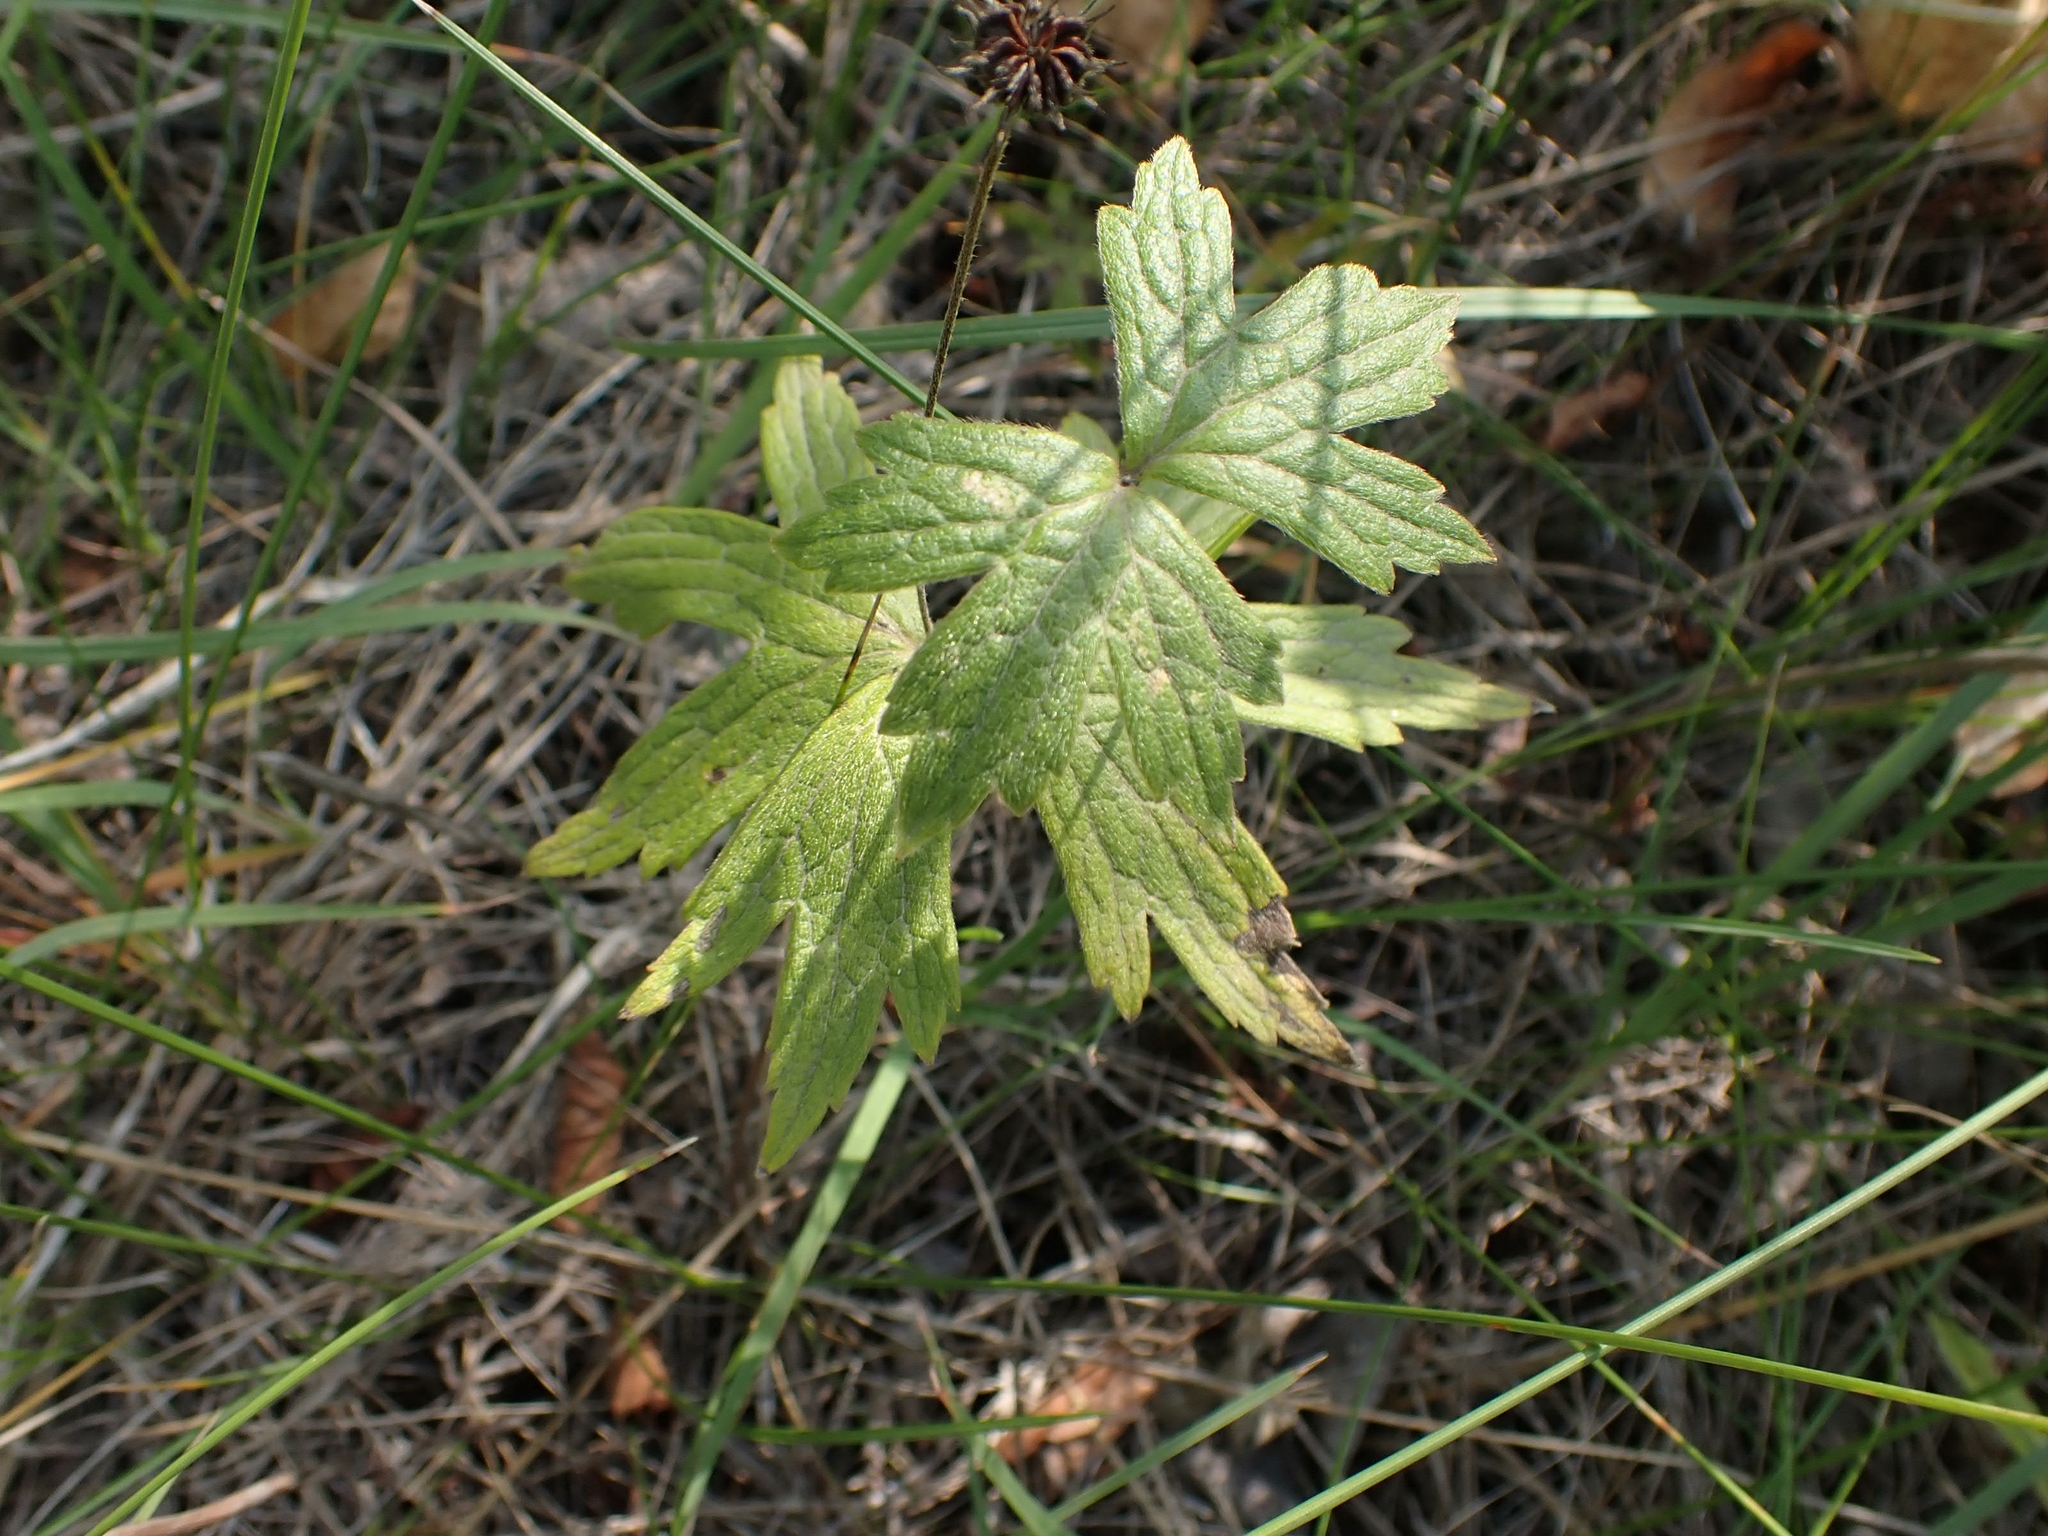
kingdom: Plantae
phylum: Tracheophyta
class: Magnoliopsida
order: Ranunculales
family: Ranunculaceae
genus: Anemonastrum
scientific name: Anemonastrum canadense
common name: Canada anemone
